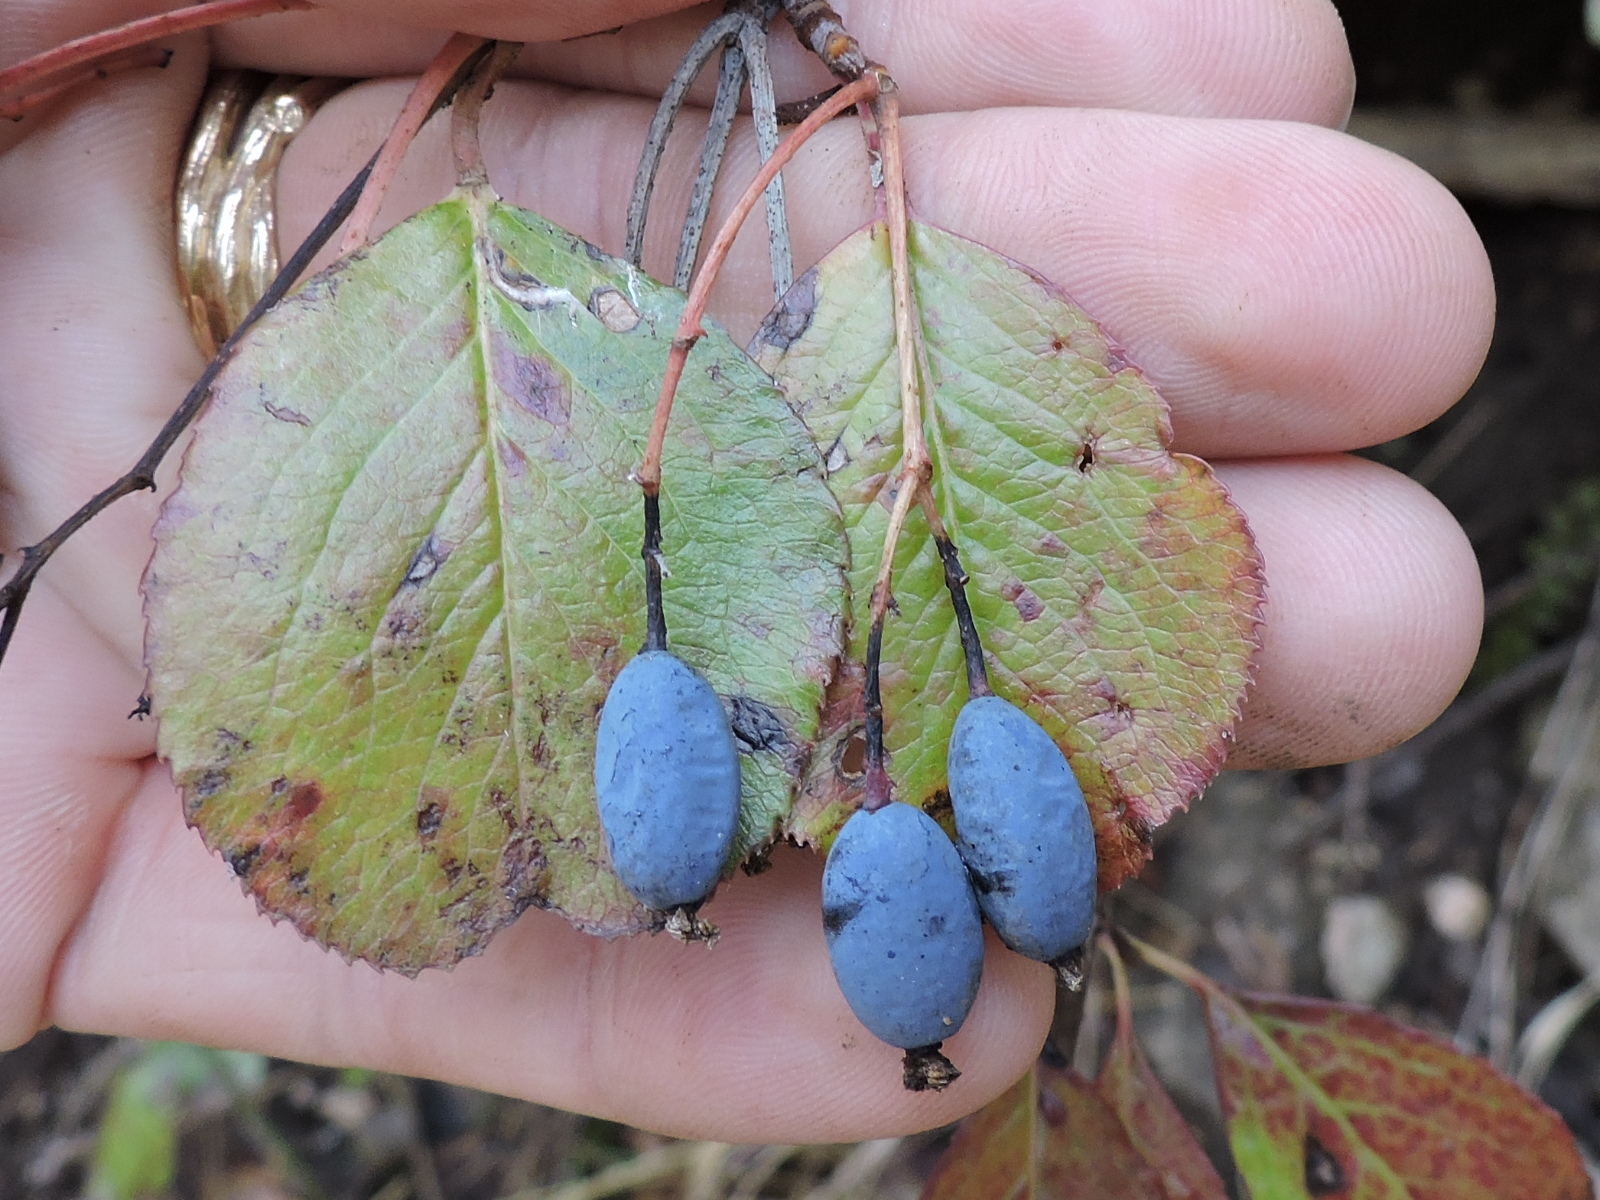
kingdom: Plantae
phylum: Tracheophyta
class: Magnoliopsida
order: Dipsacales
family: Viburnaceae
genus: Viburnum
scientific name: Viburnum rufidulum
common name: Blue haw
